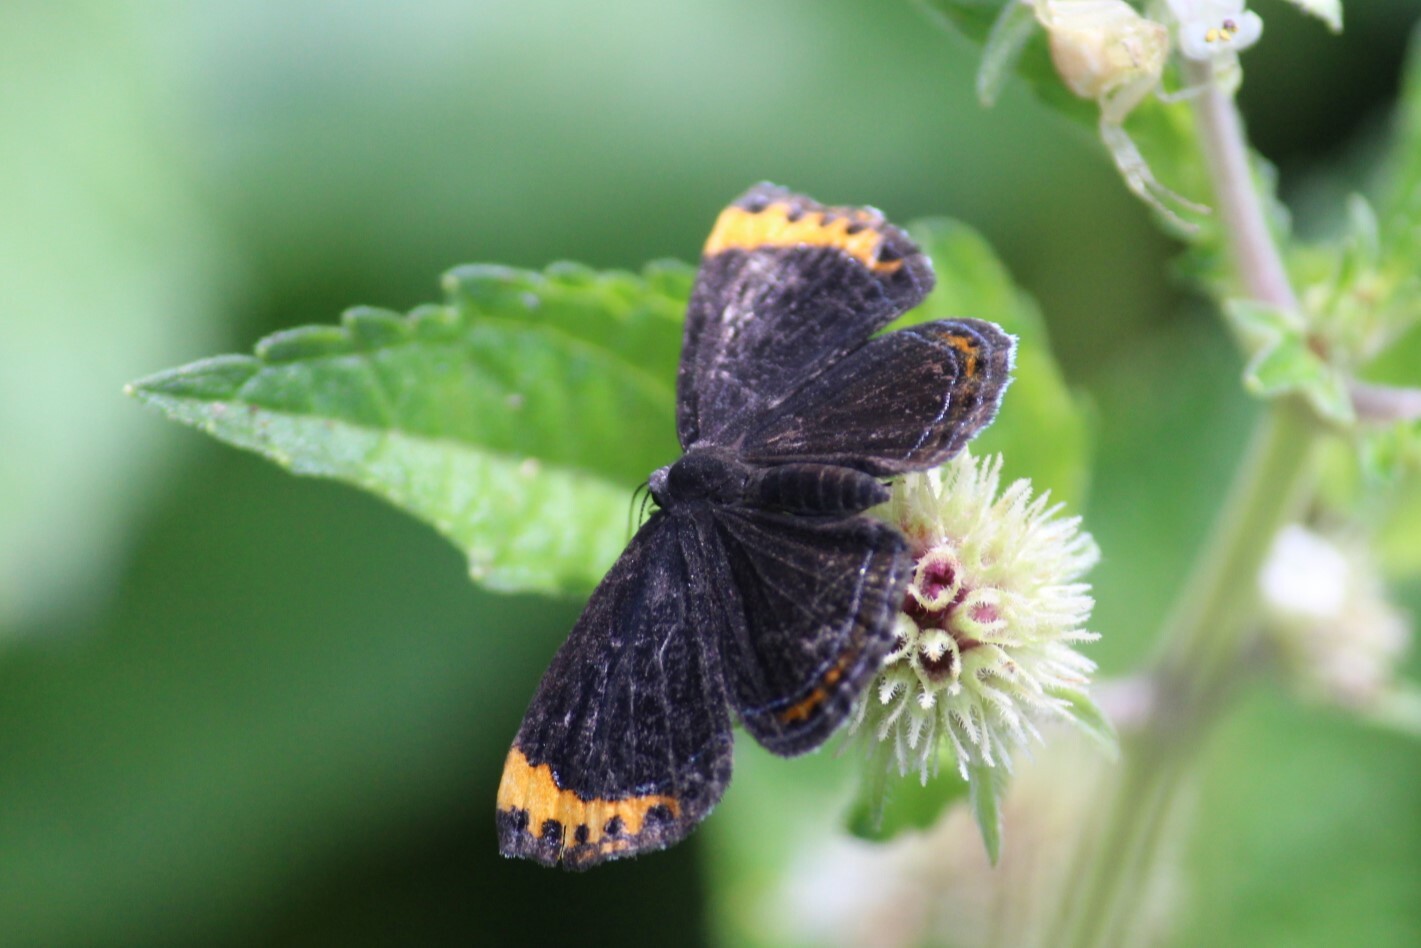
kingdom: Animalia
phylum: Arthropoda
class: Insecta
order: Lepidoptera
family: Riodinidae
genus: Nelone
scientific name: Nelone cadmeis
